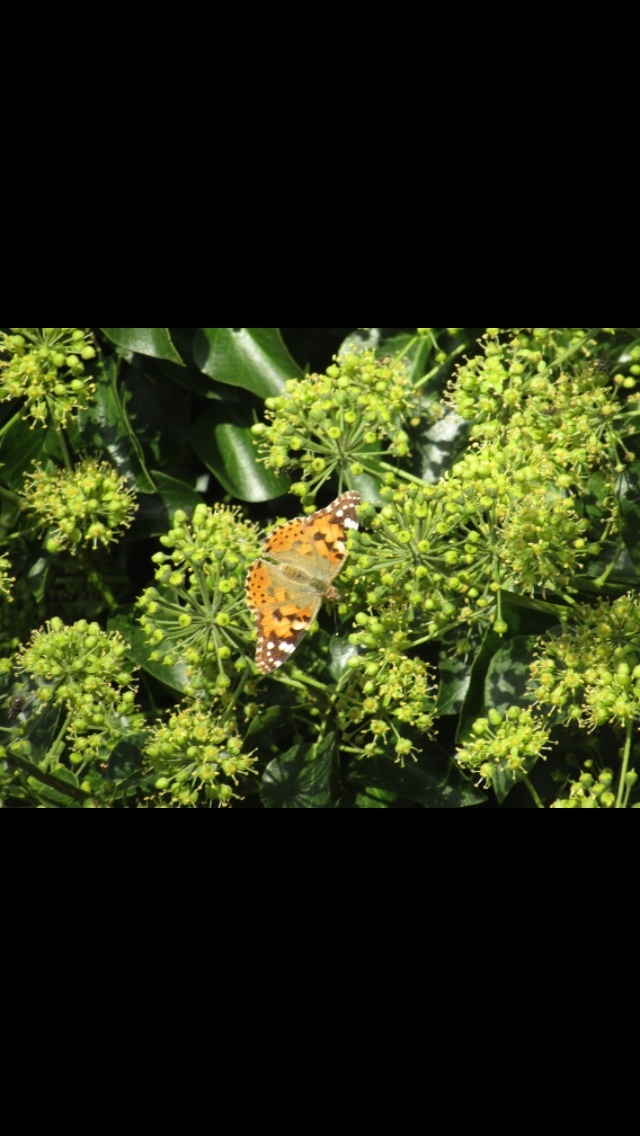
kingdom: Animalia
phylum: Arthropoda
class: Insecta
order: Lepidoptera
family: Nymphalidae
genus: Vanessa
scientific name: Vanessa cardui
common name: Painted lady
